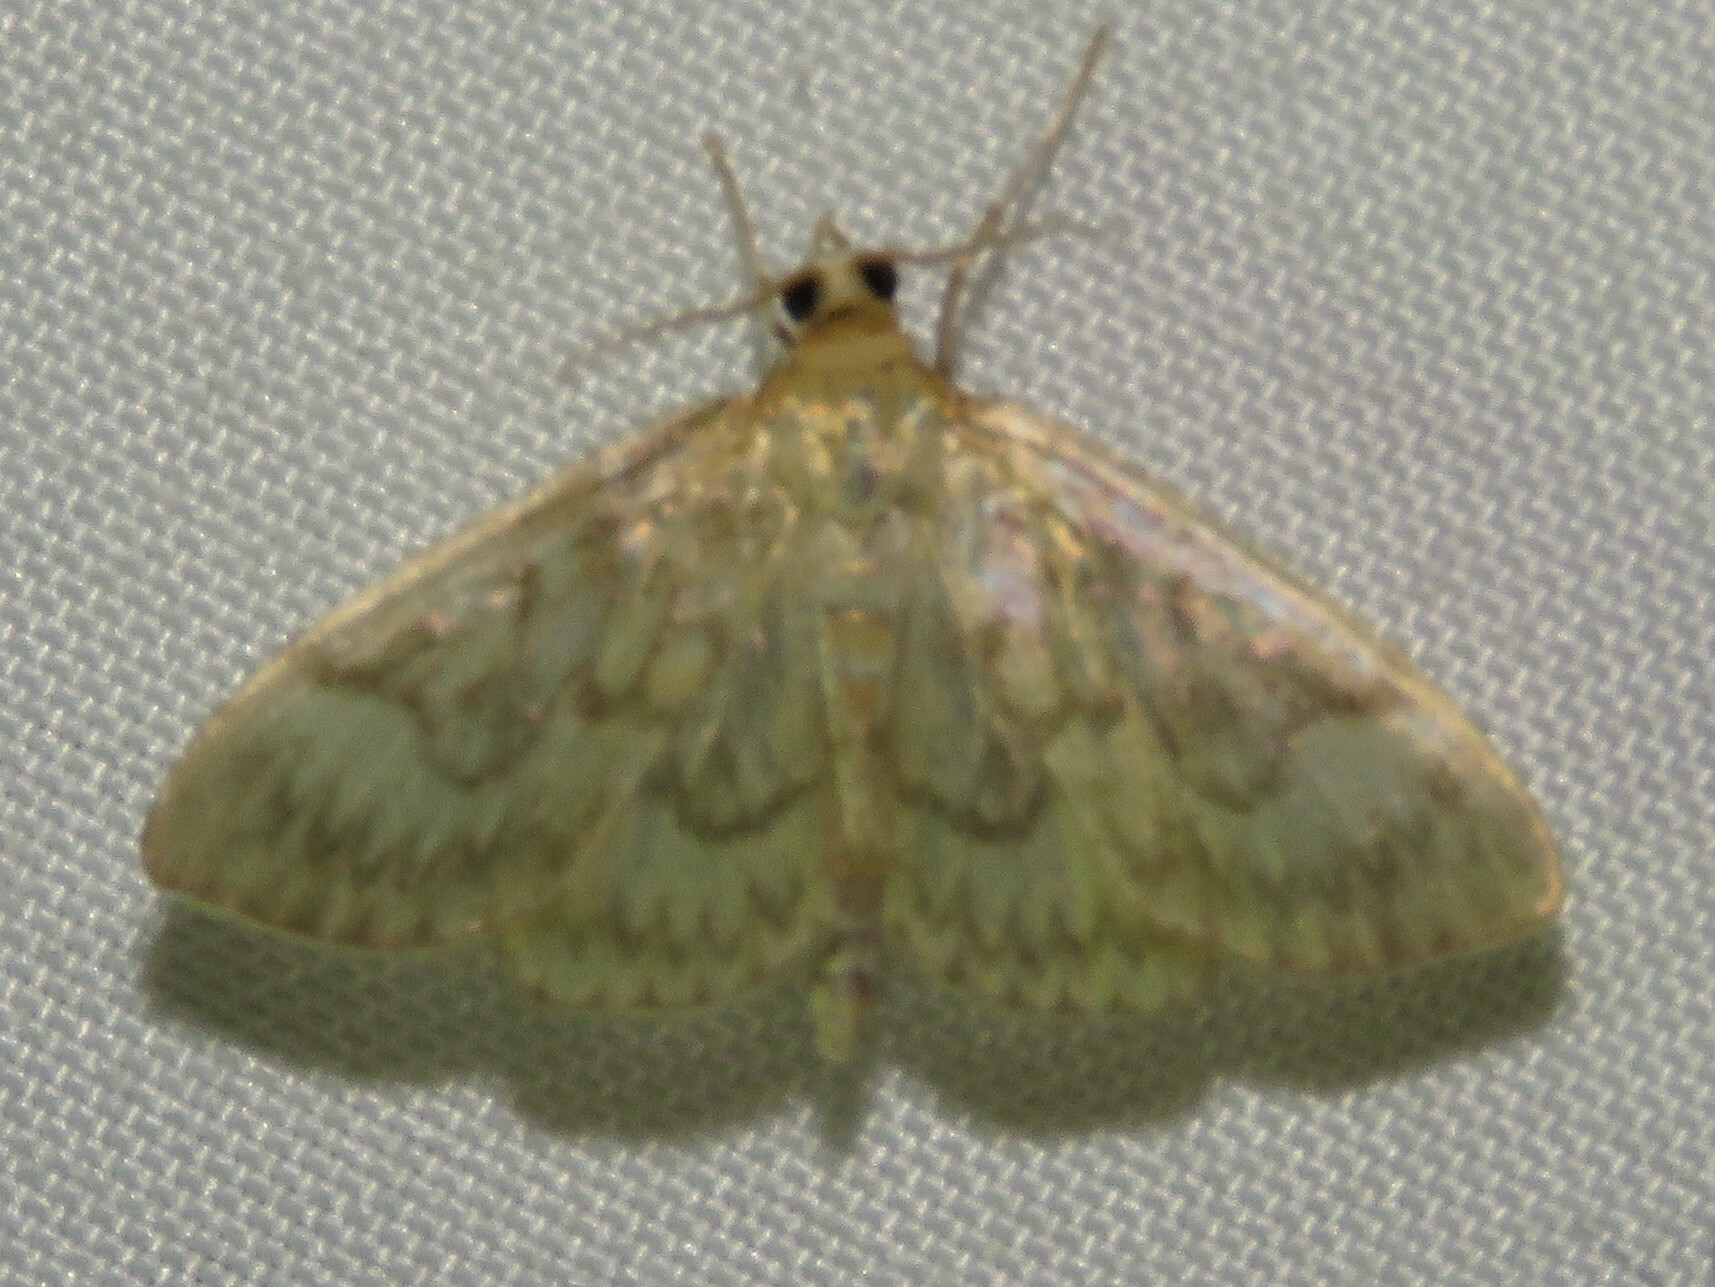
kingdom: Animalia
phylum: Arthropoda
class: Insecta
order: Lepidoptera
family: Crambidae
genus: Crocidophora
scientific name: Crocidophora serratissimalis
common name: Saw-toothed crocidophora moth
